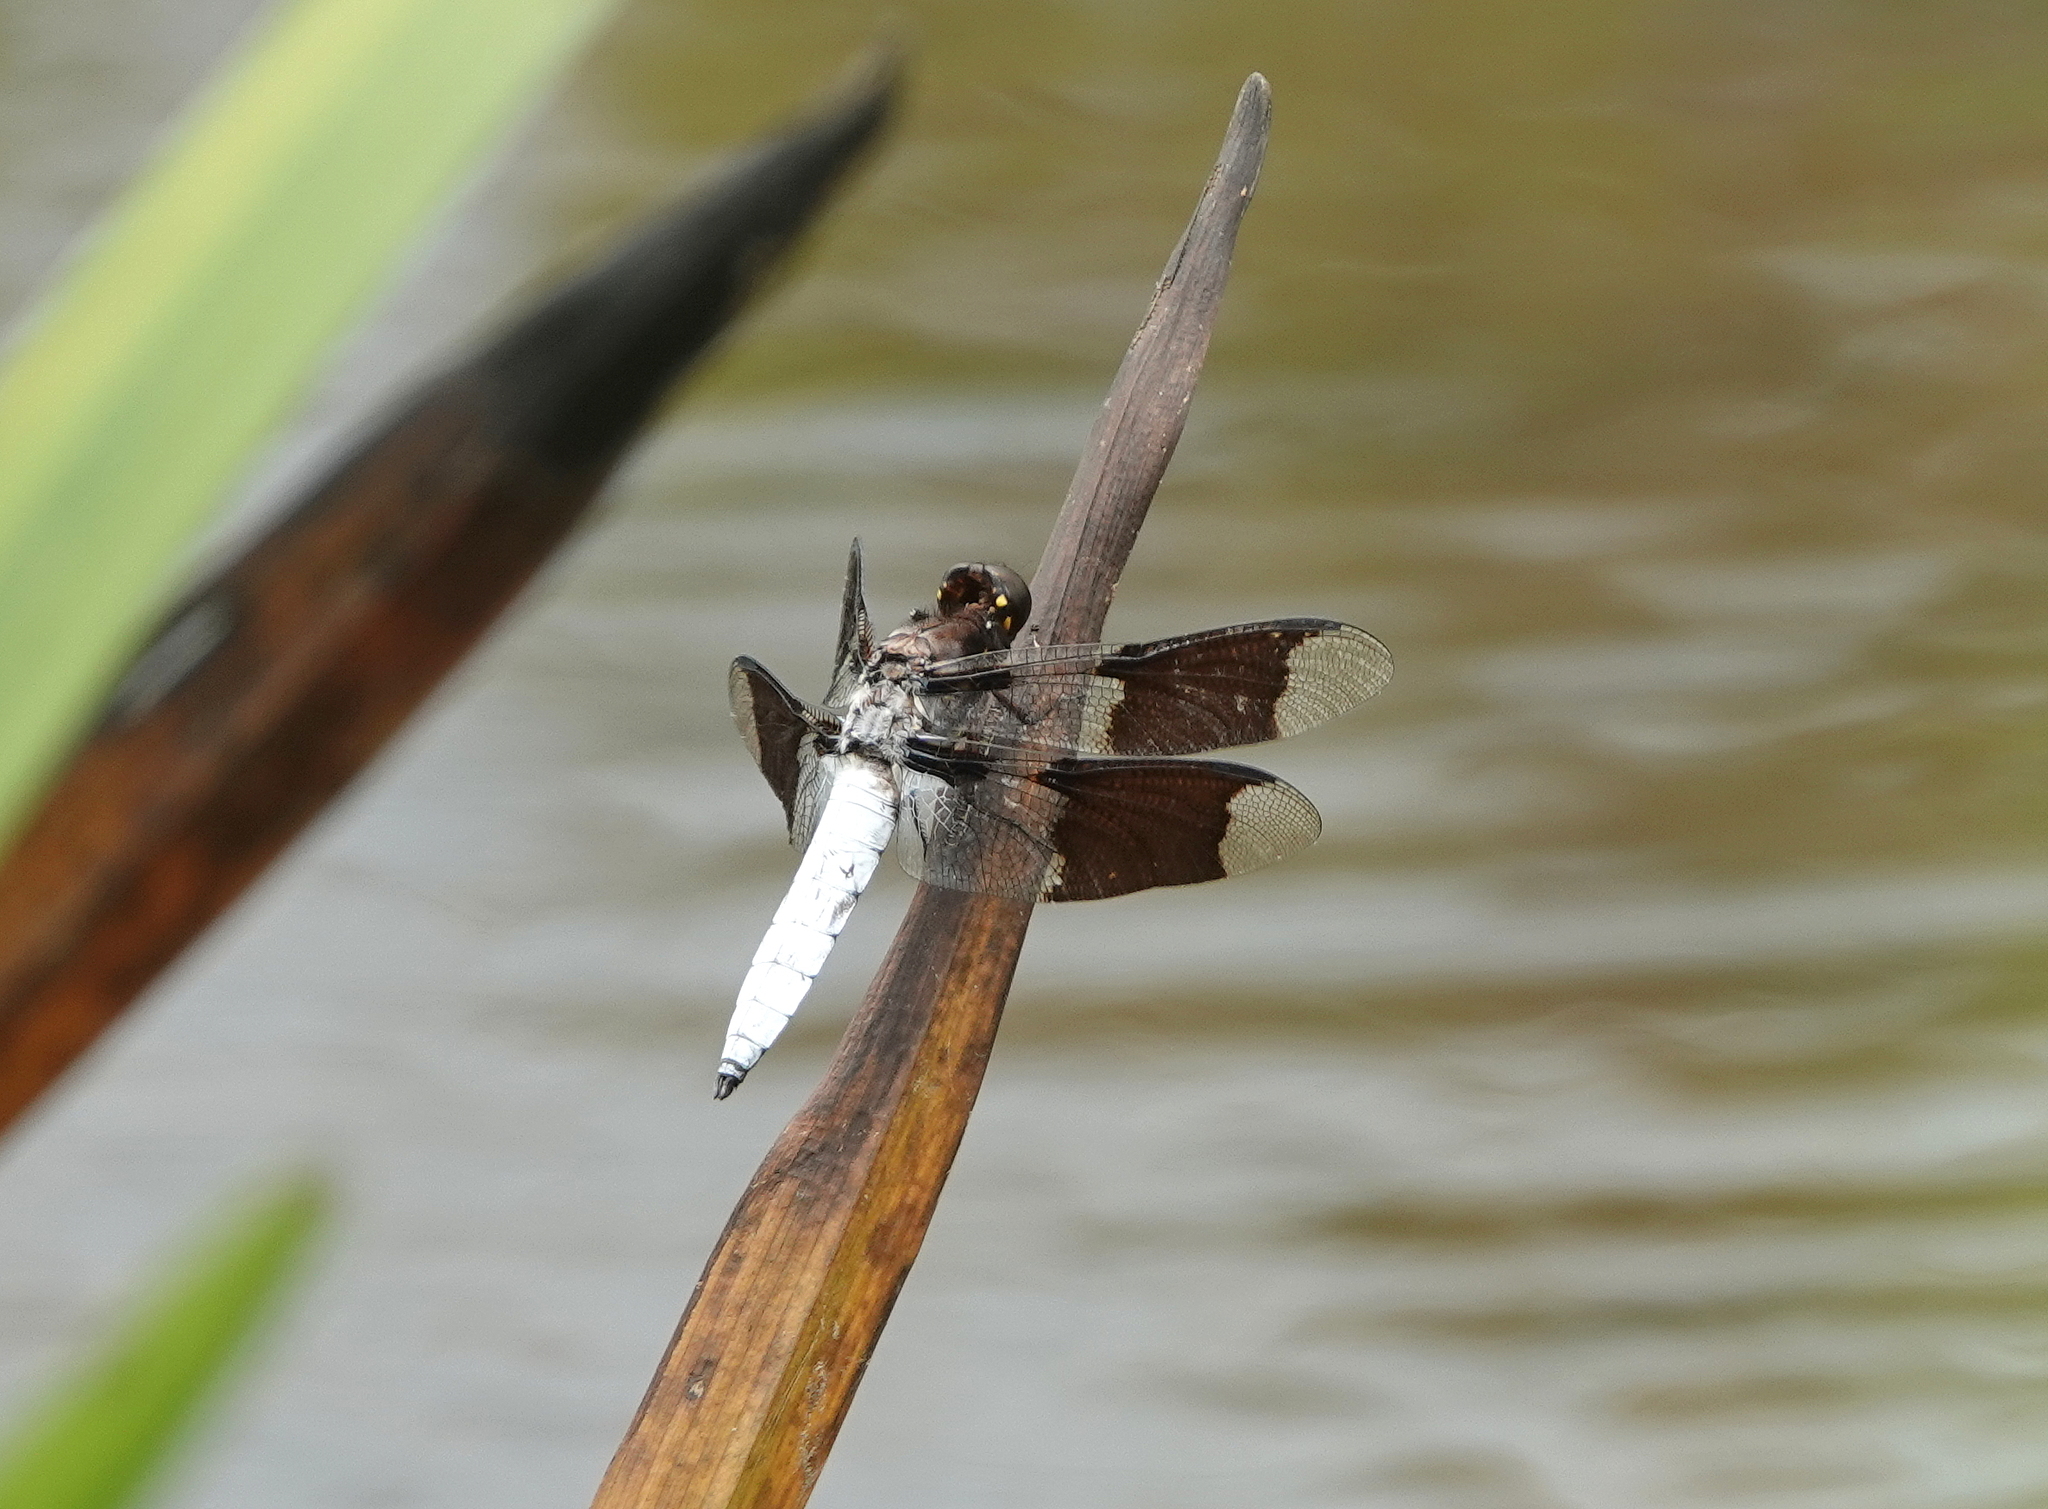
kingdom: Animalia
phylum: Arthropoda
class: Insecta
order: Odonata
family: Libellulidae
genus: Plathemis
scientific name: Plathemis lydia
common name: Common whitetail
